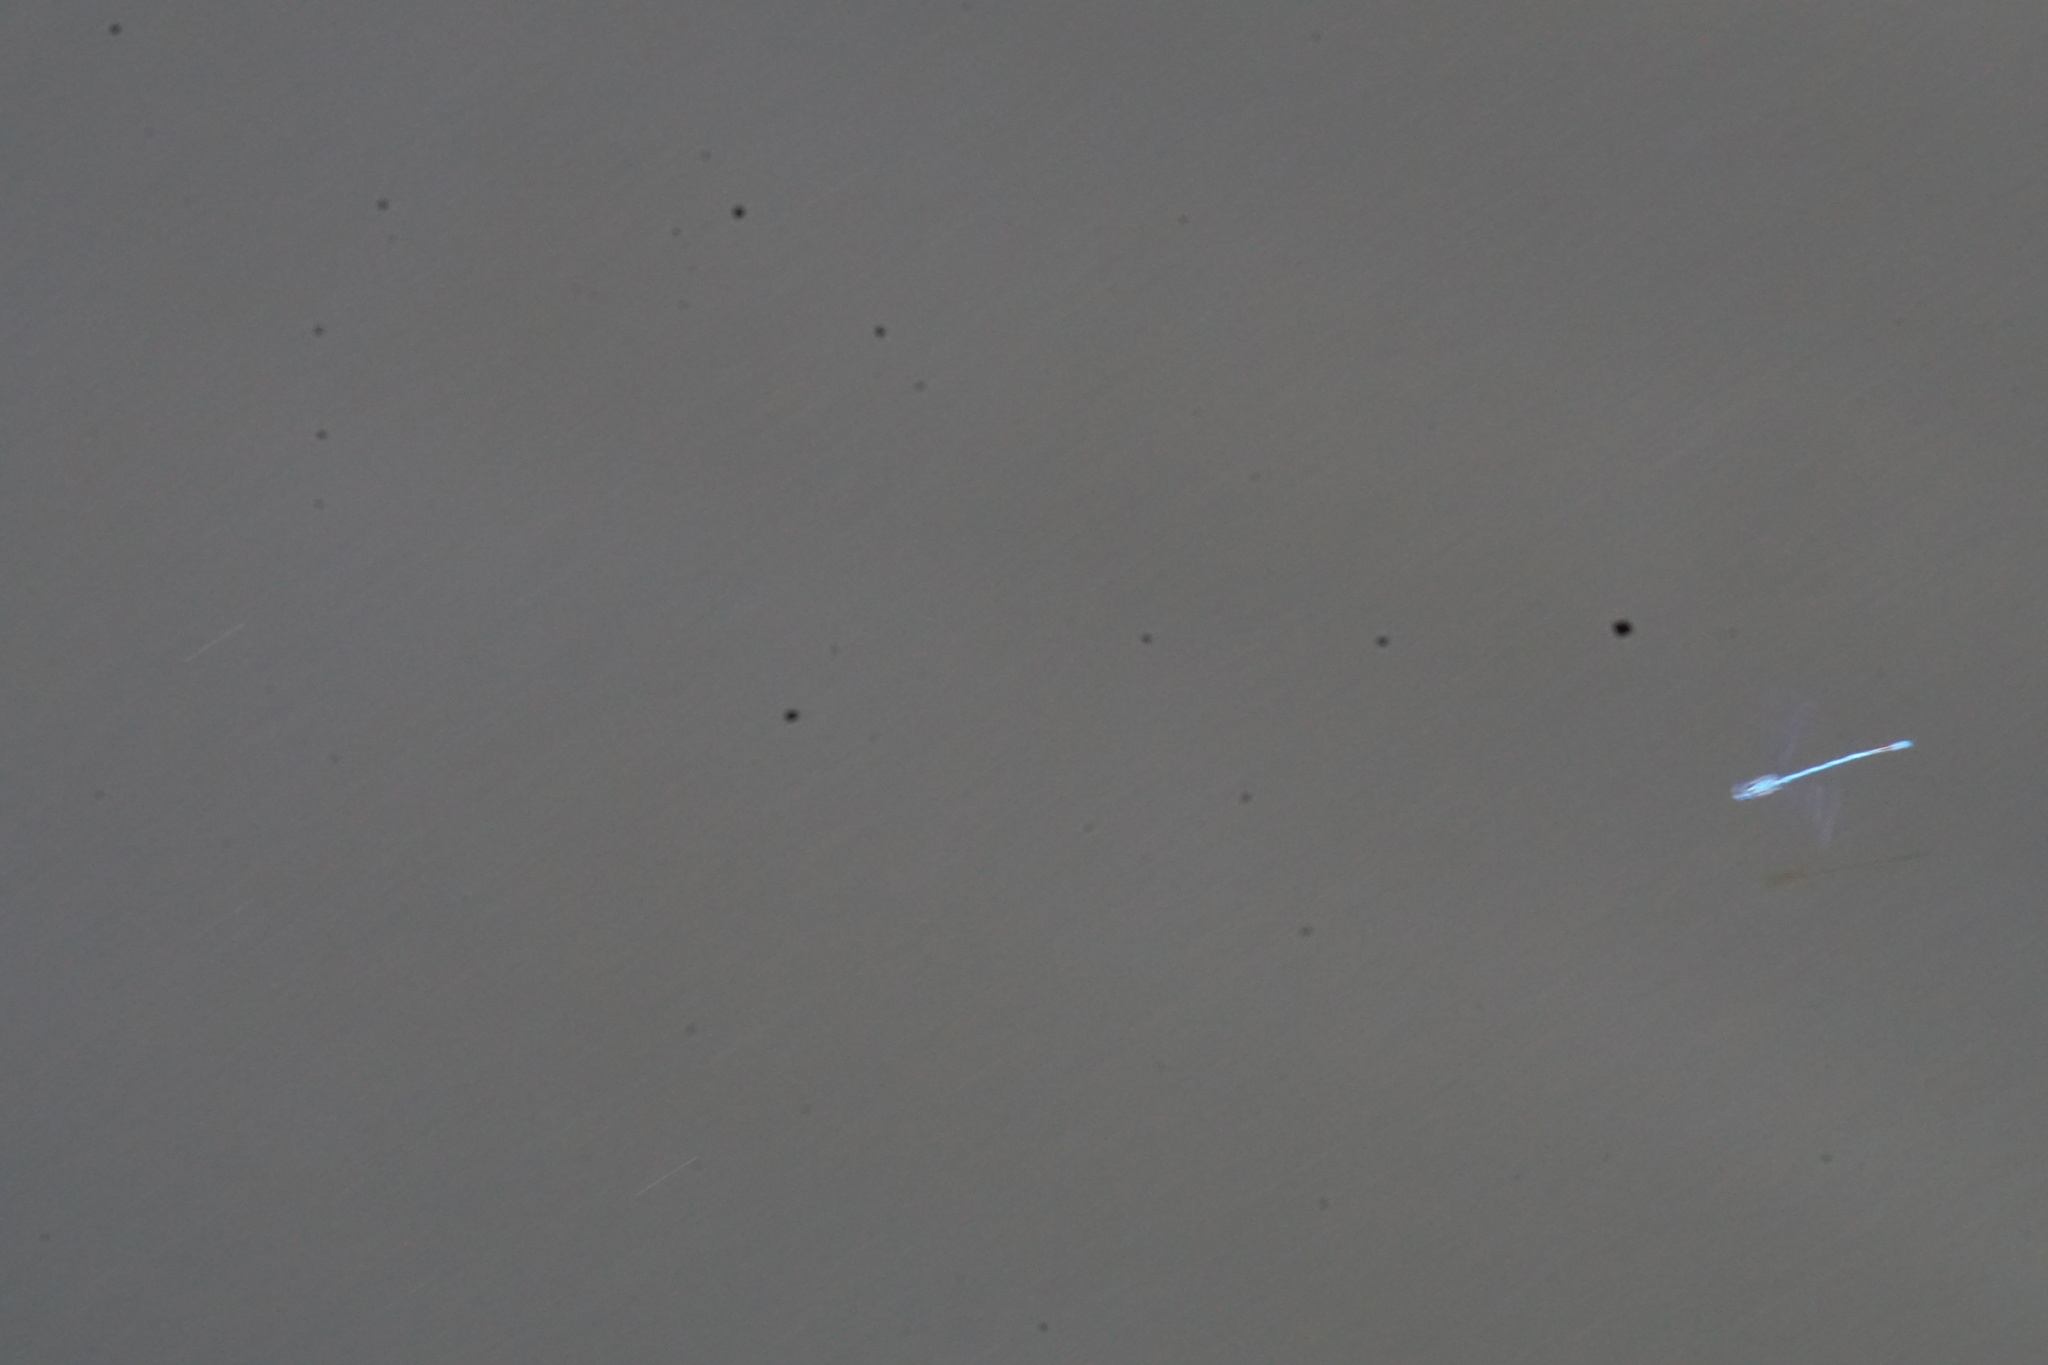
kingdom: Animalia
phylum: Arthropoda
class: Insecta
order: Odonata
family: Coenagrionidae
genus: Erythromma
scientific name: Erythromma lindenii
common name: Blue-eye
